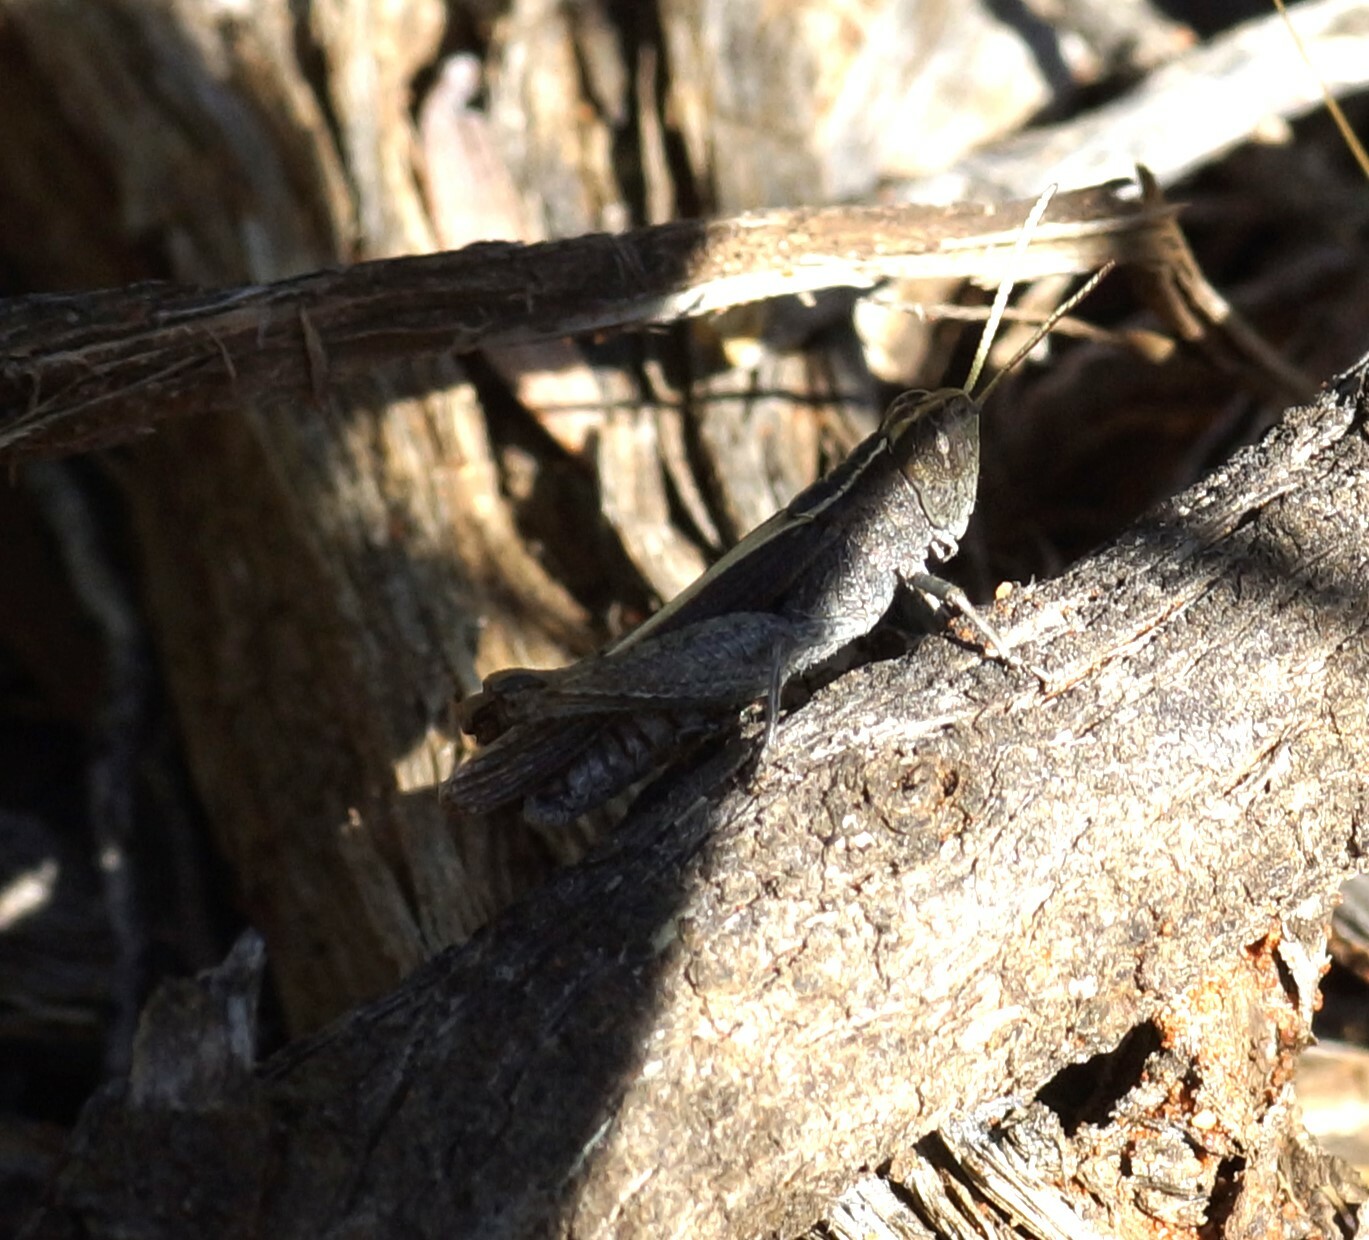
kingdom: Animalia
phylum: Arthropoda
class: Insecta
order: Orthoptera
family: Acrididae
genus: Apotropis
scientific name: Apotropis vittata
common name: Common striped grasshopper
